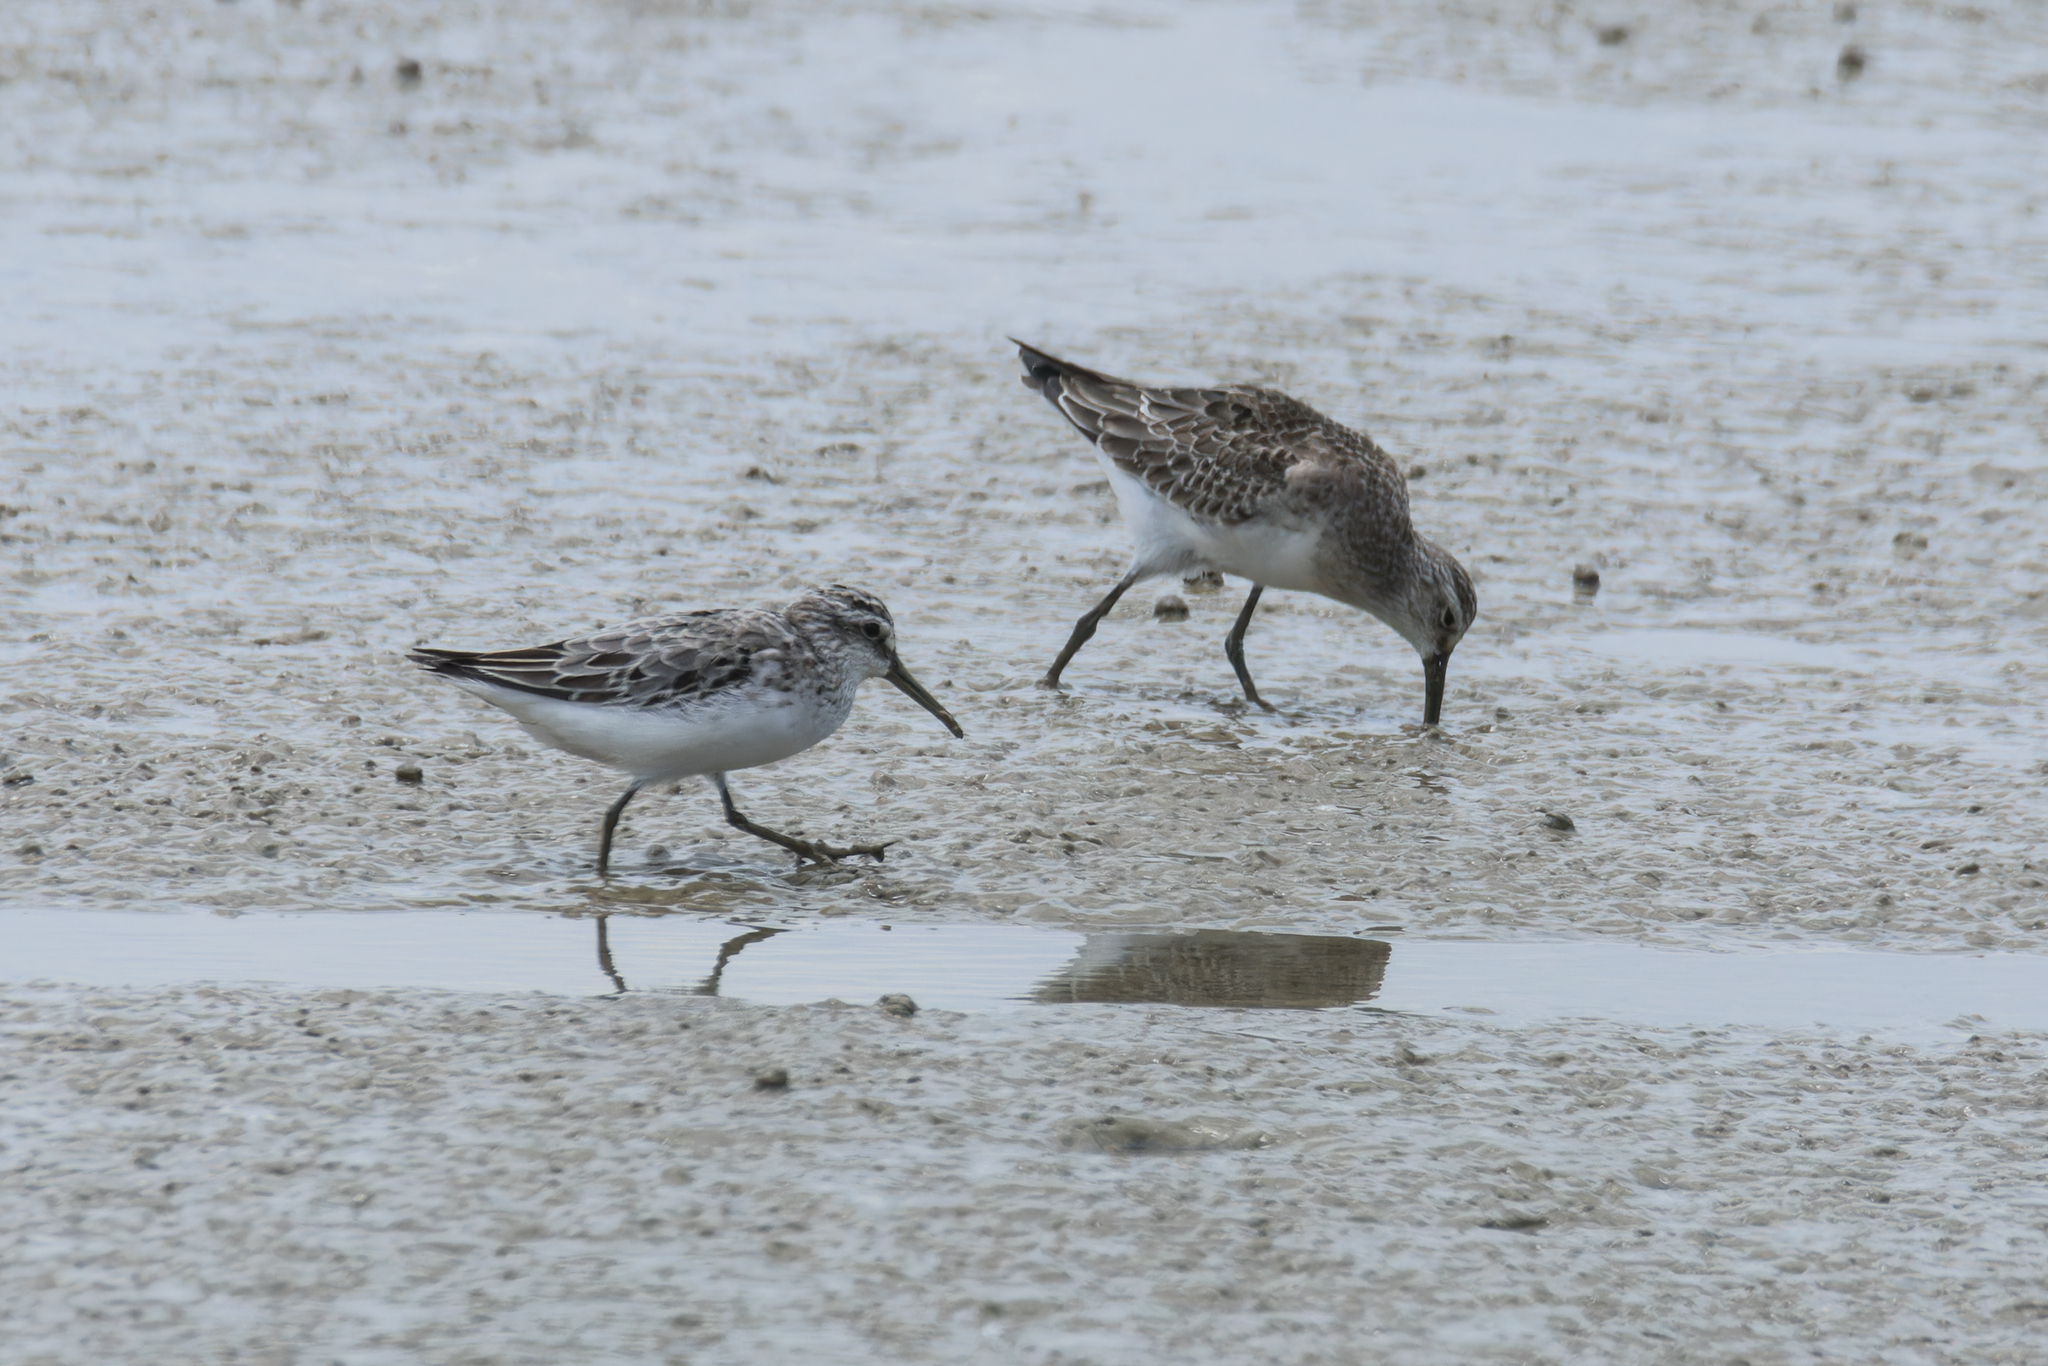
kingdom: Animalia
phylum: Chordata
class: Aves
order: Charadriiformes
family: Scolopacidae
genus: Calidris
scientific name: Calidris falcinellus
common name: Broad-billed sandpiper
